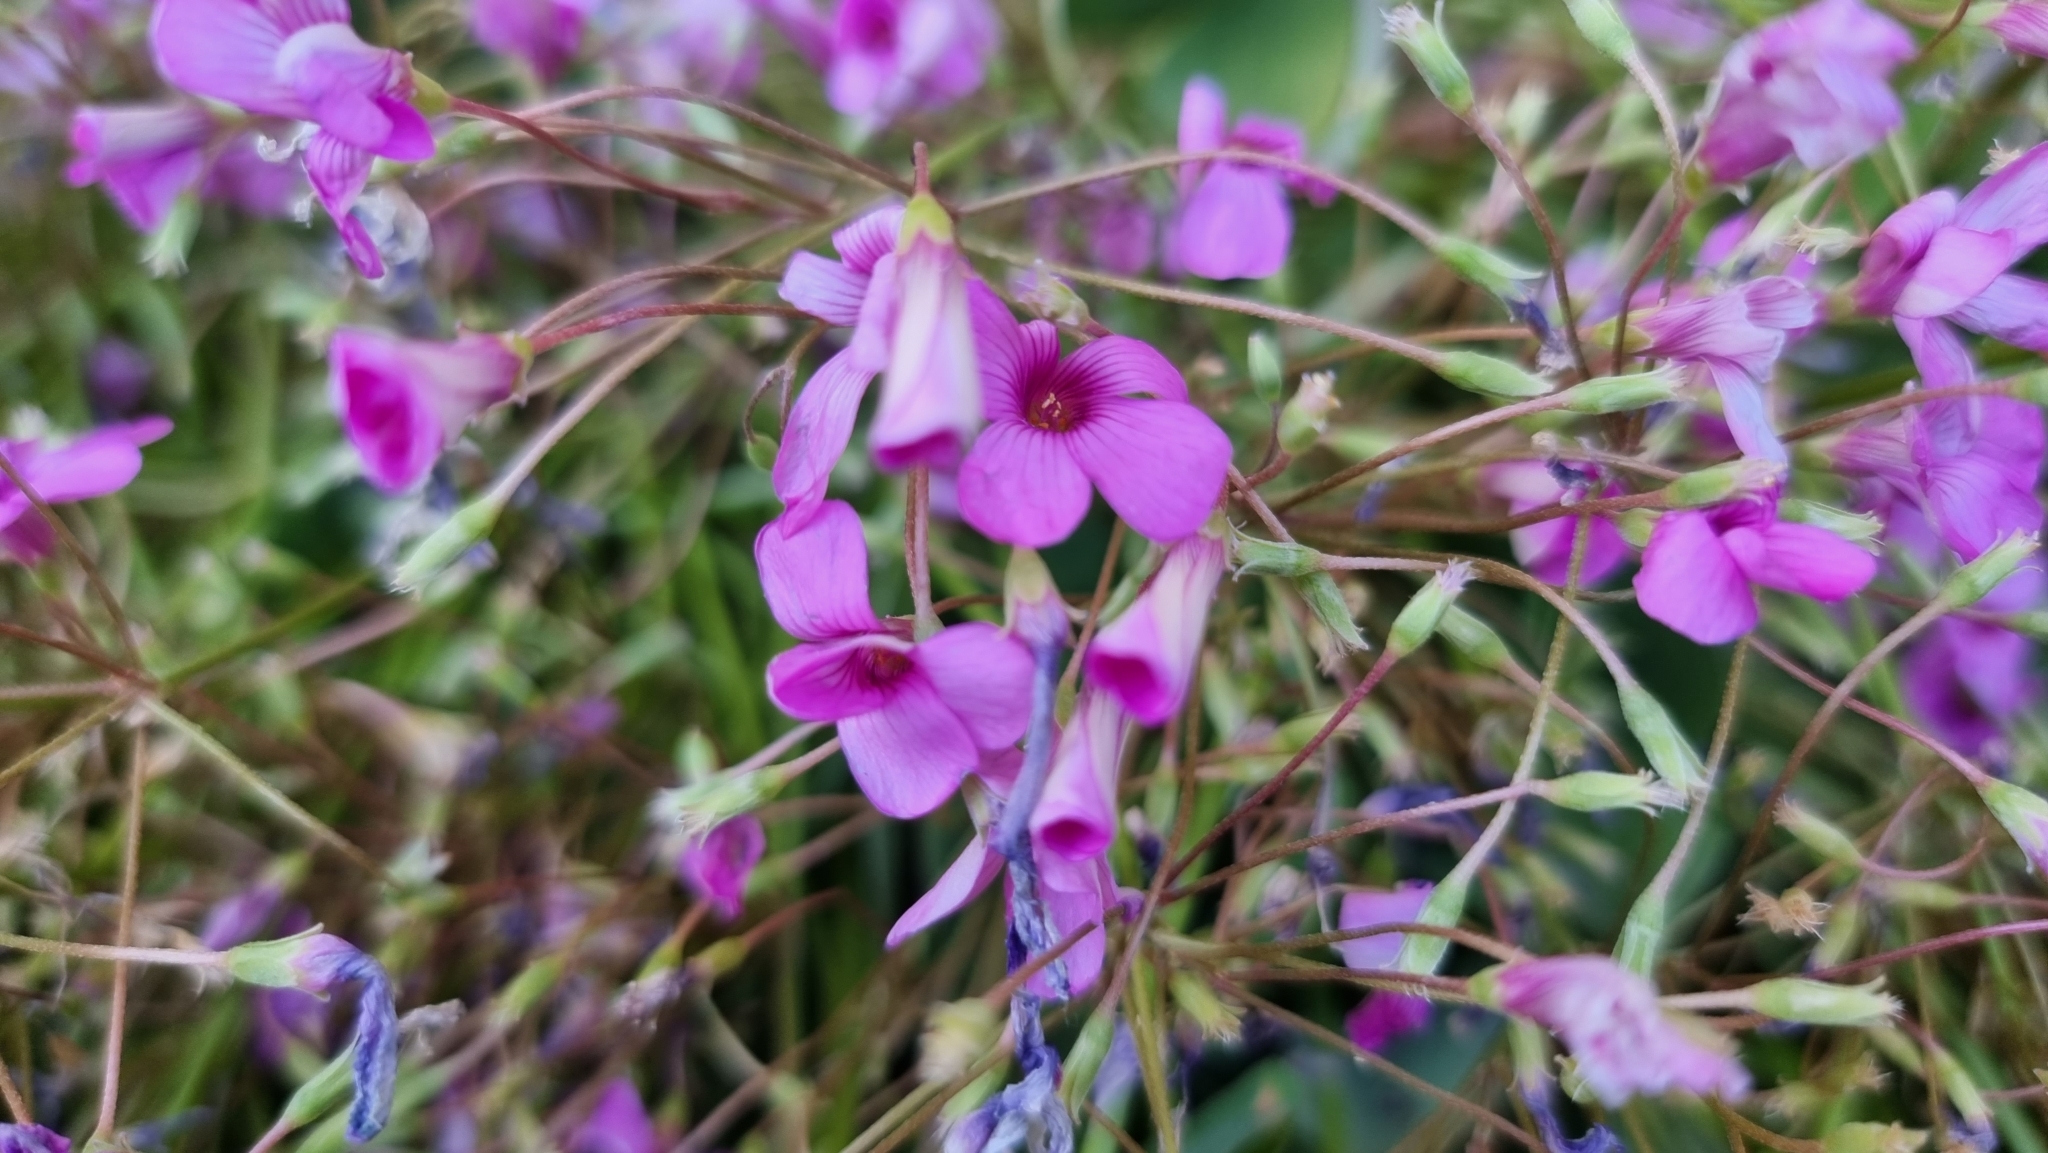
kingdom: Plantae
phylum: Tracheophyta
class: Magnoliopsida
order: Oxalidales
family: Oxalidaceae
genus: Oxalis
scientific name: Oxalis articulata
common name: Pink-sorrel
